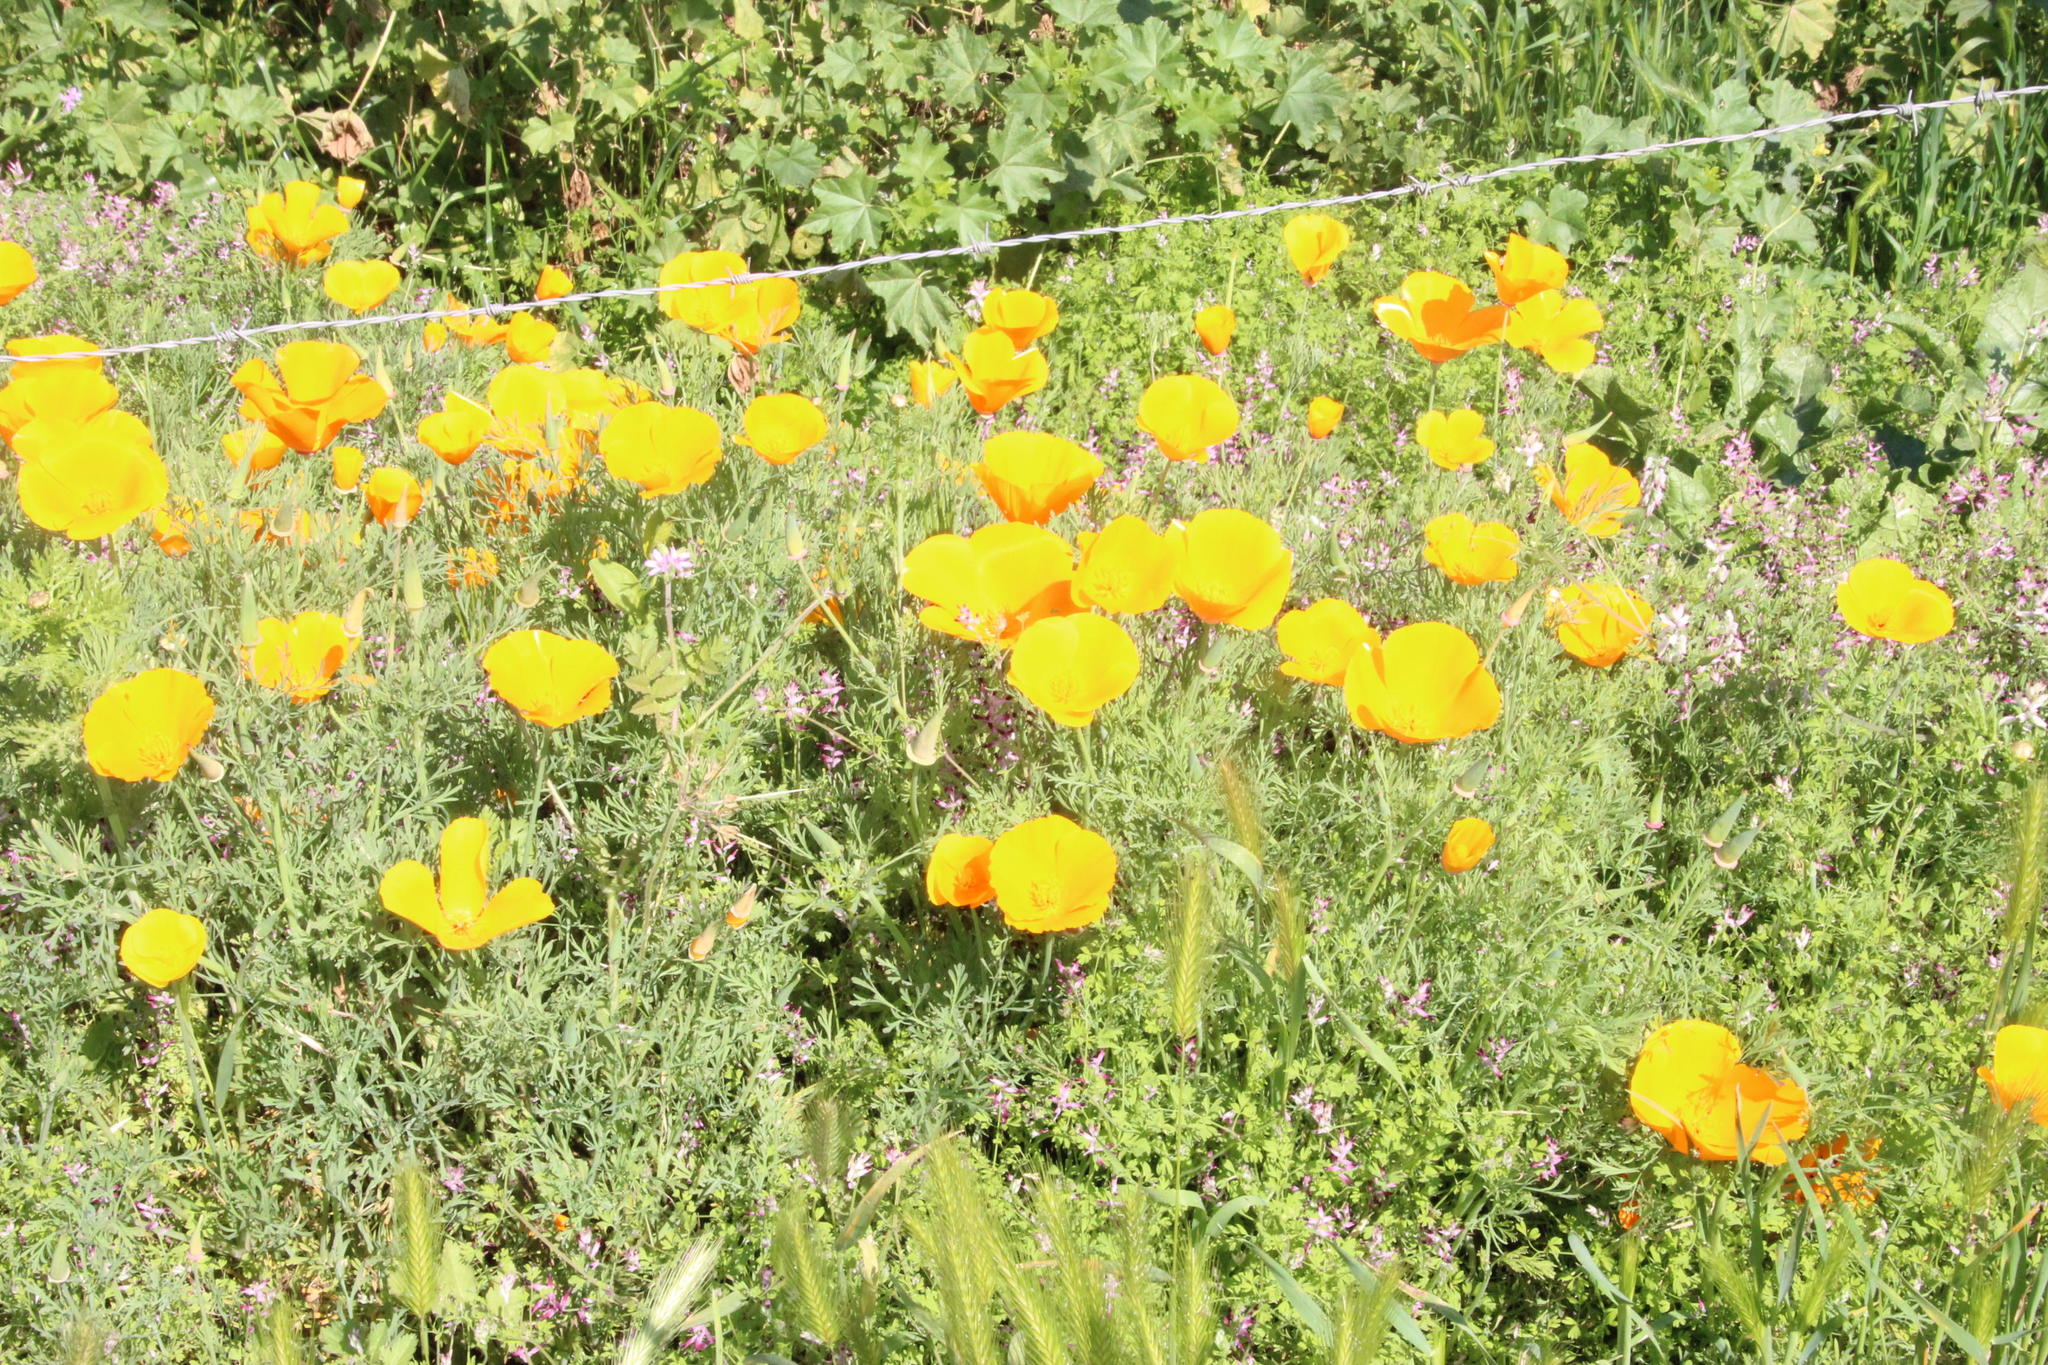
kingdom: Plantae
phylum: Tracheophyta
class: Magnoliopsida
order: Ranunculales
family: Papaveraceae
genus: Eschscholzia
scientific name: Eschscholzia californica
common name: California poppy
